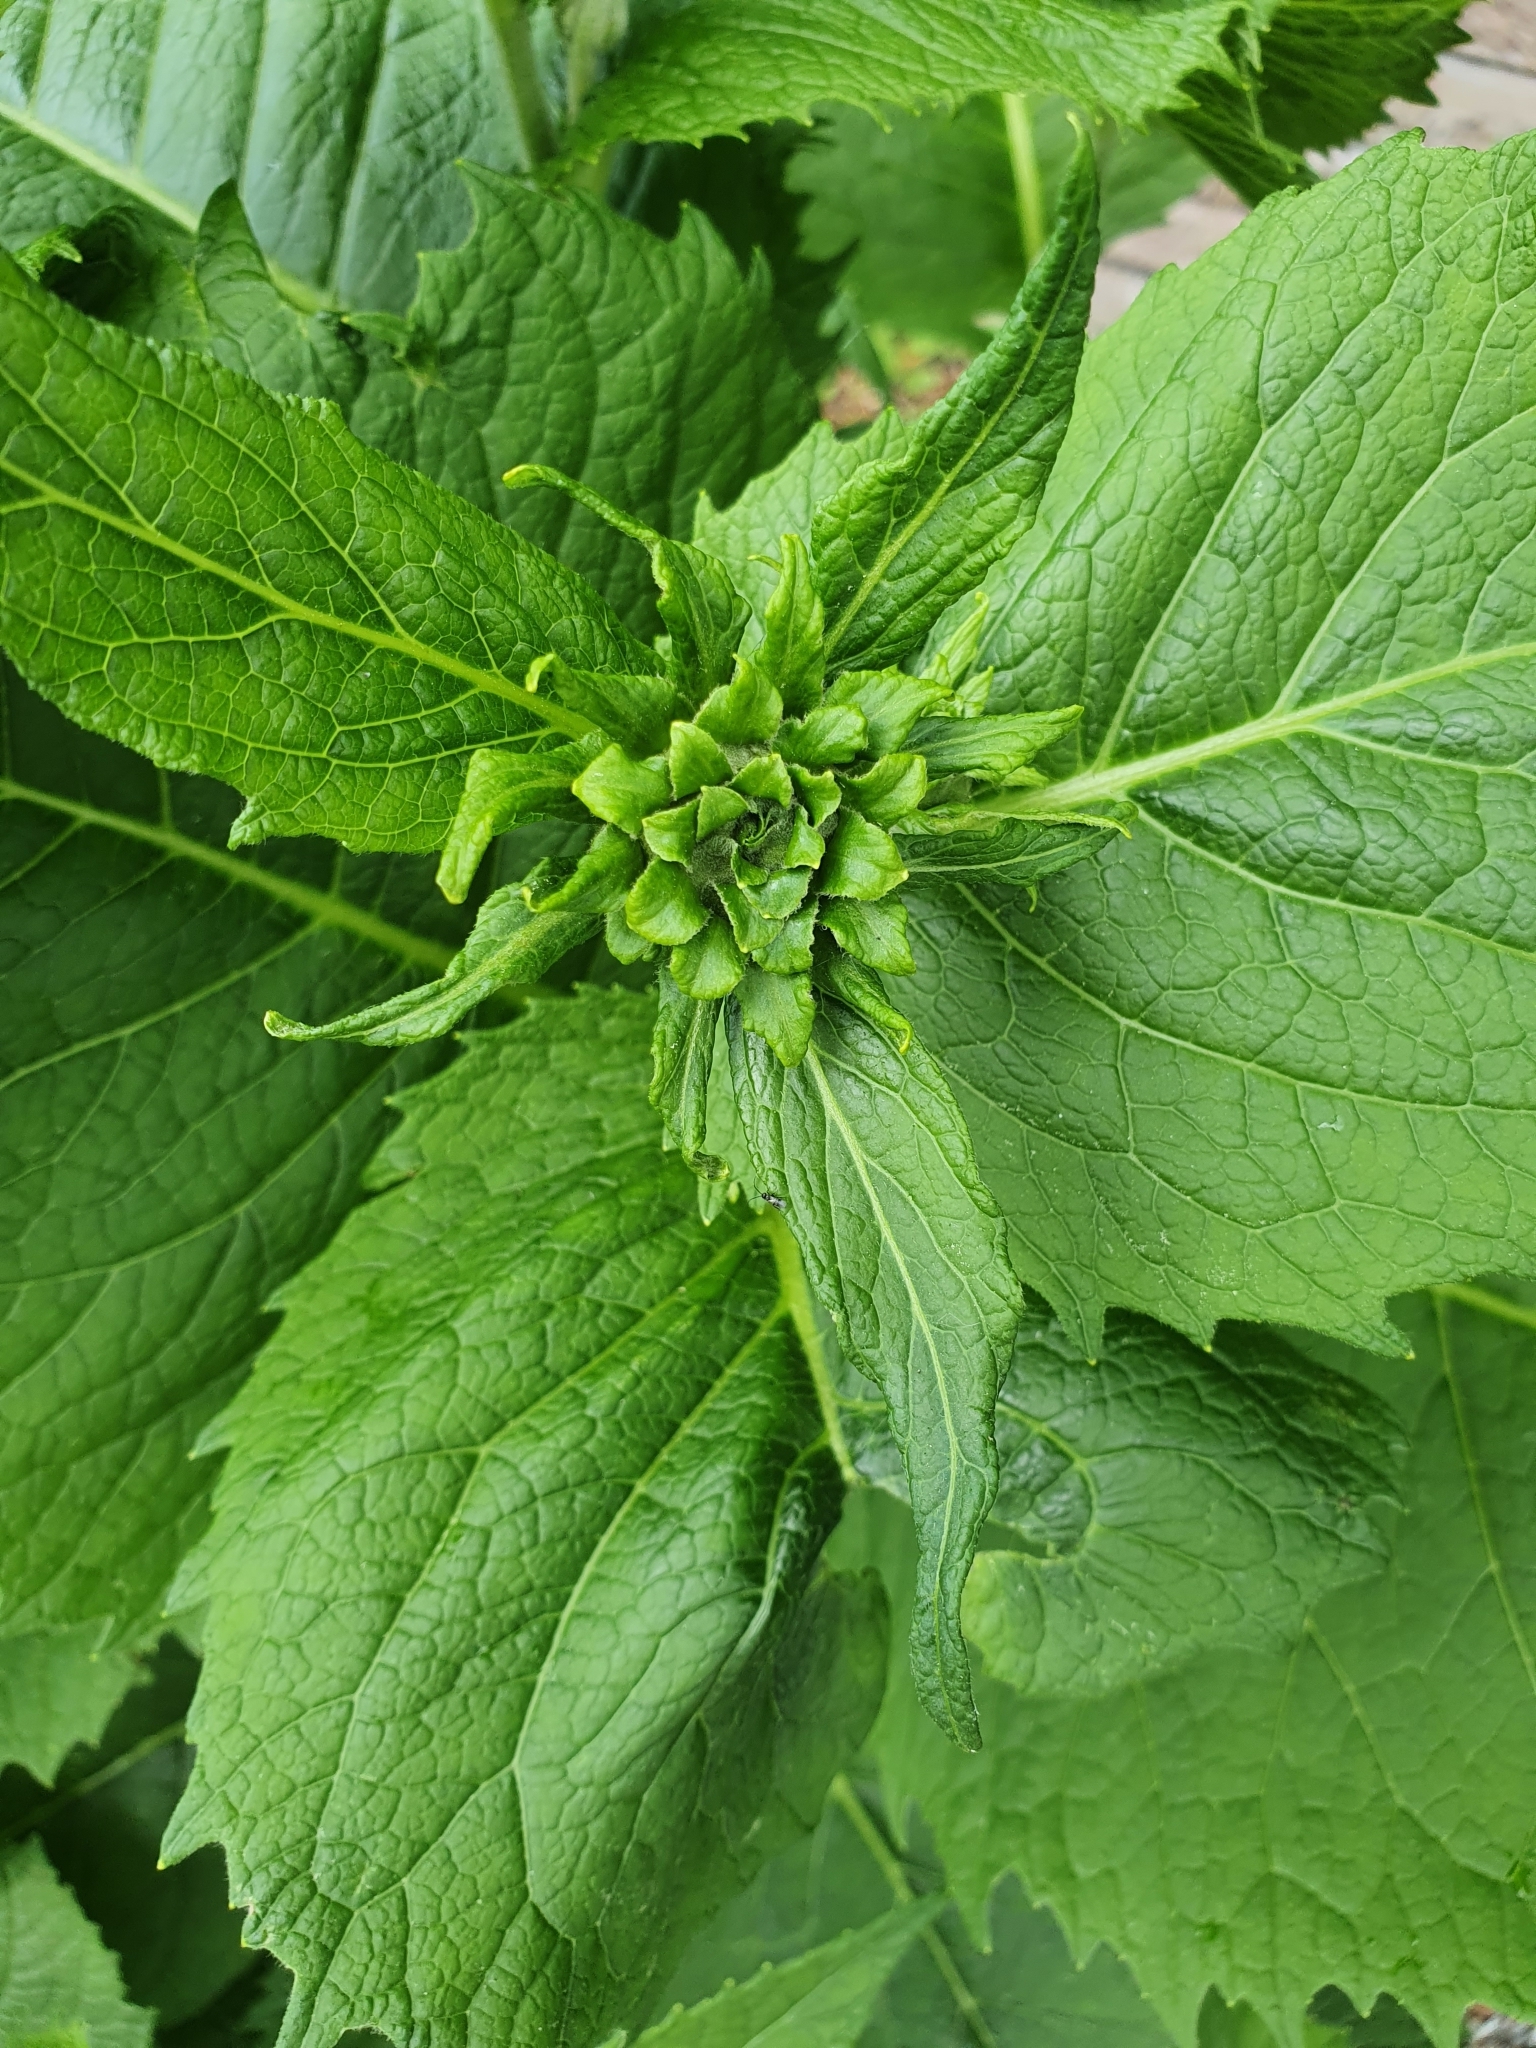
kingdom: Plantae
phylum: Tracheophyta
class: Magnoliopsida
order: Asterales
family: Asteraceae
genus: Telekia
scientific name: Telekia speciosa
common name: Yellow oxeye
